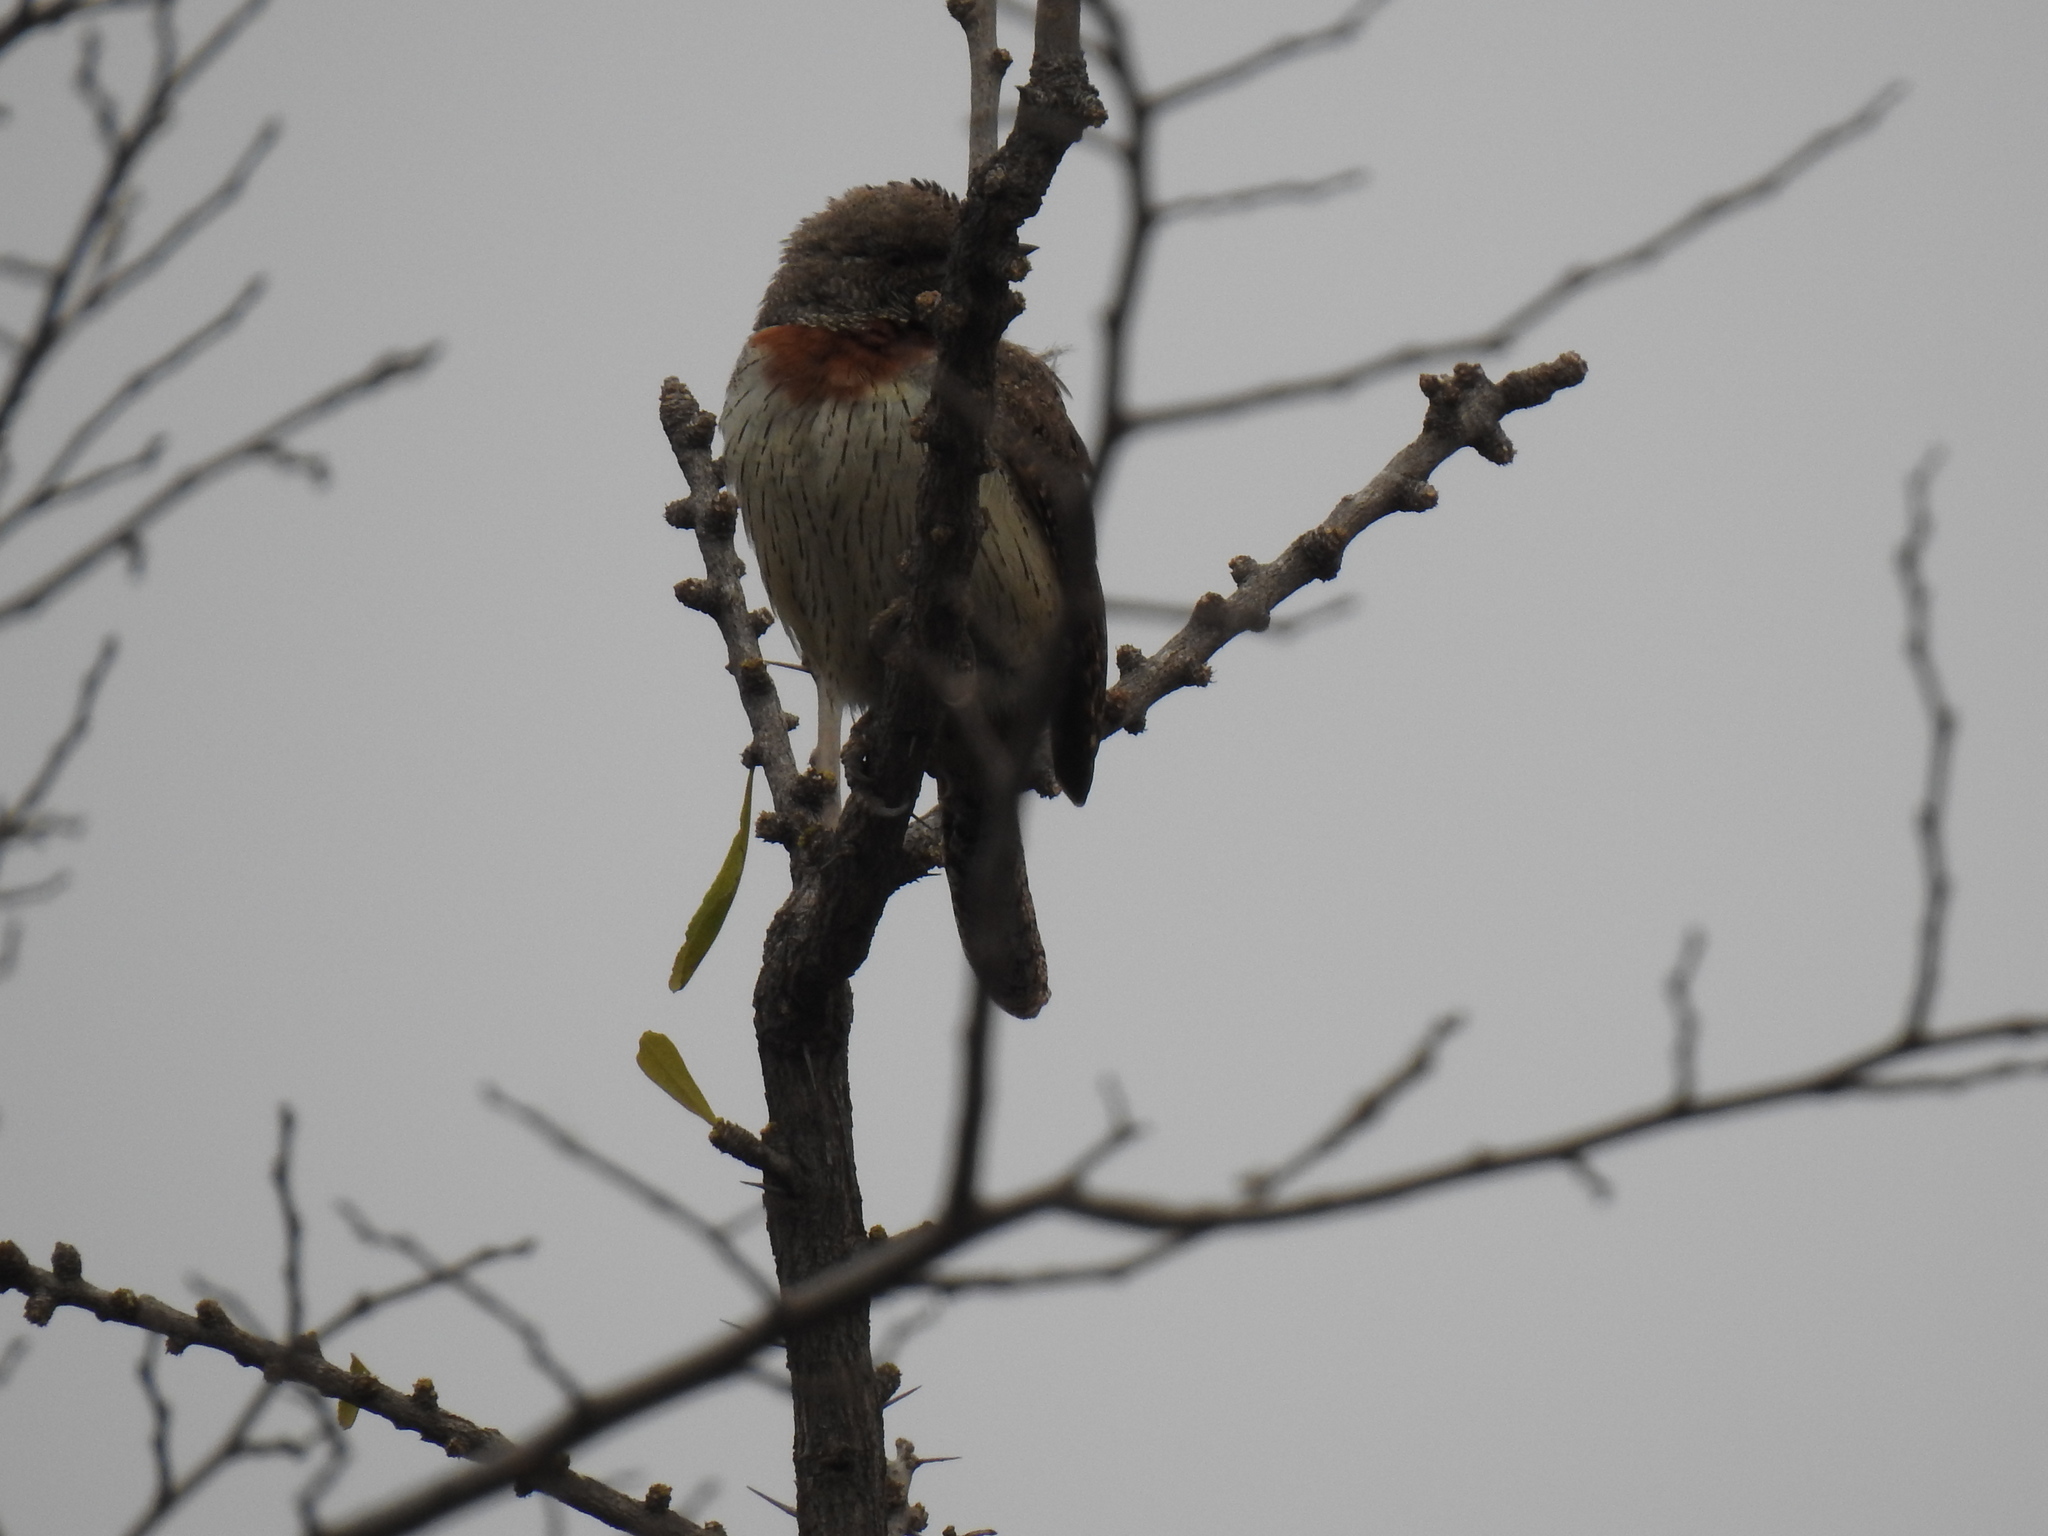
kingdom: Animalia
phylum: Chordata
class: Aves
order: Piciformes
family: Picidae
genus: Jynx
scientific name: Jynx ruficollis
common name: Red-throated wryneck
